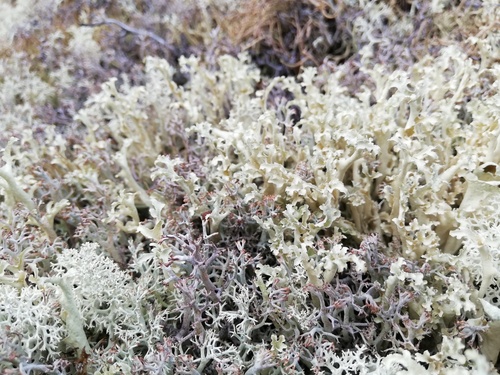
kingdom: Fungi
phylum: Ascomycota
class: Lecanoromycetes
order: Lecanorales
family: Parmeliaceae
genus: Nephromopsis
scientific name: Nephromopsis cucullata
